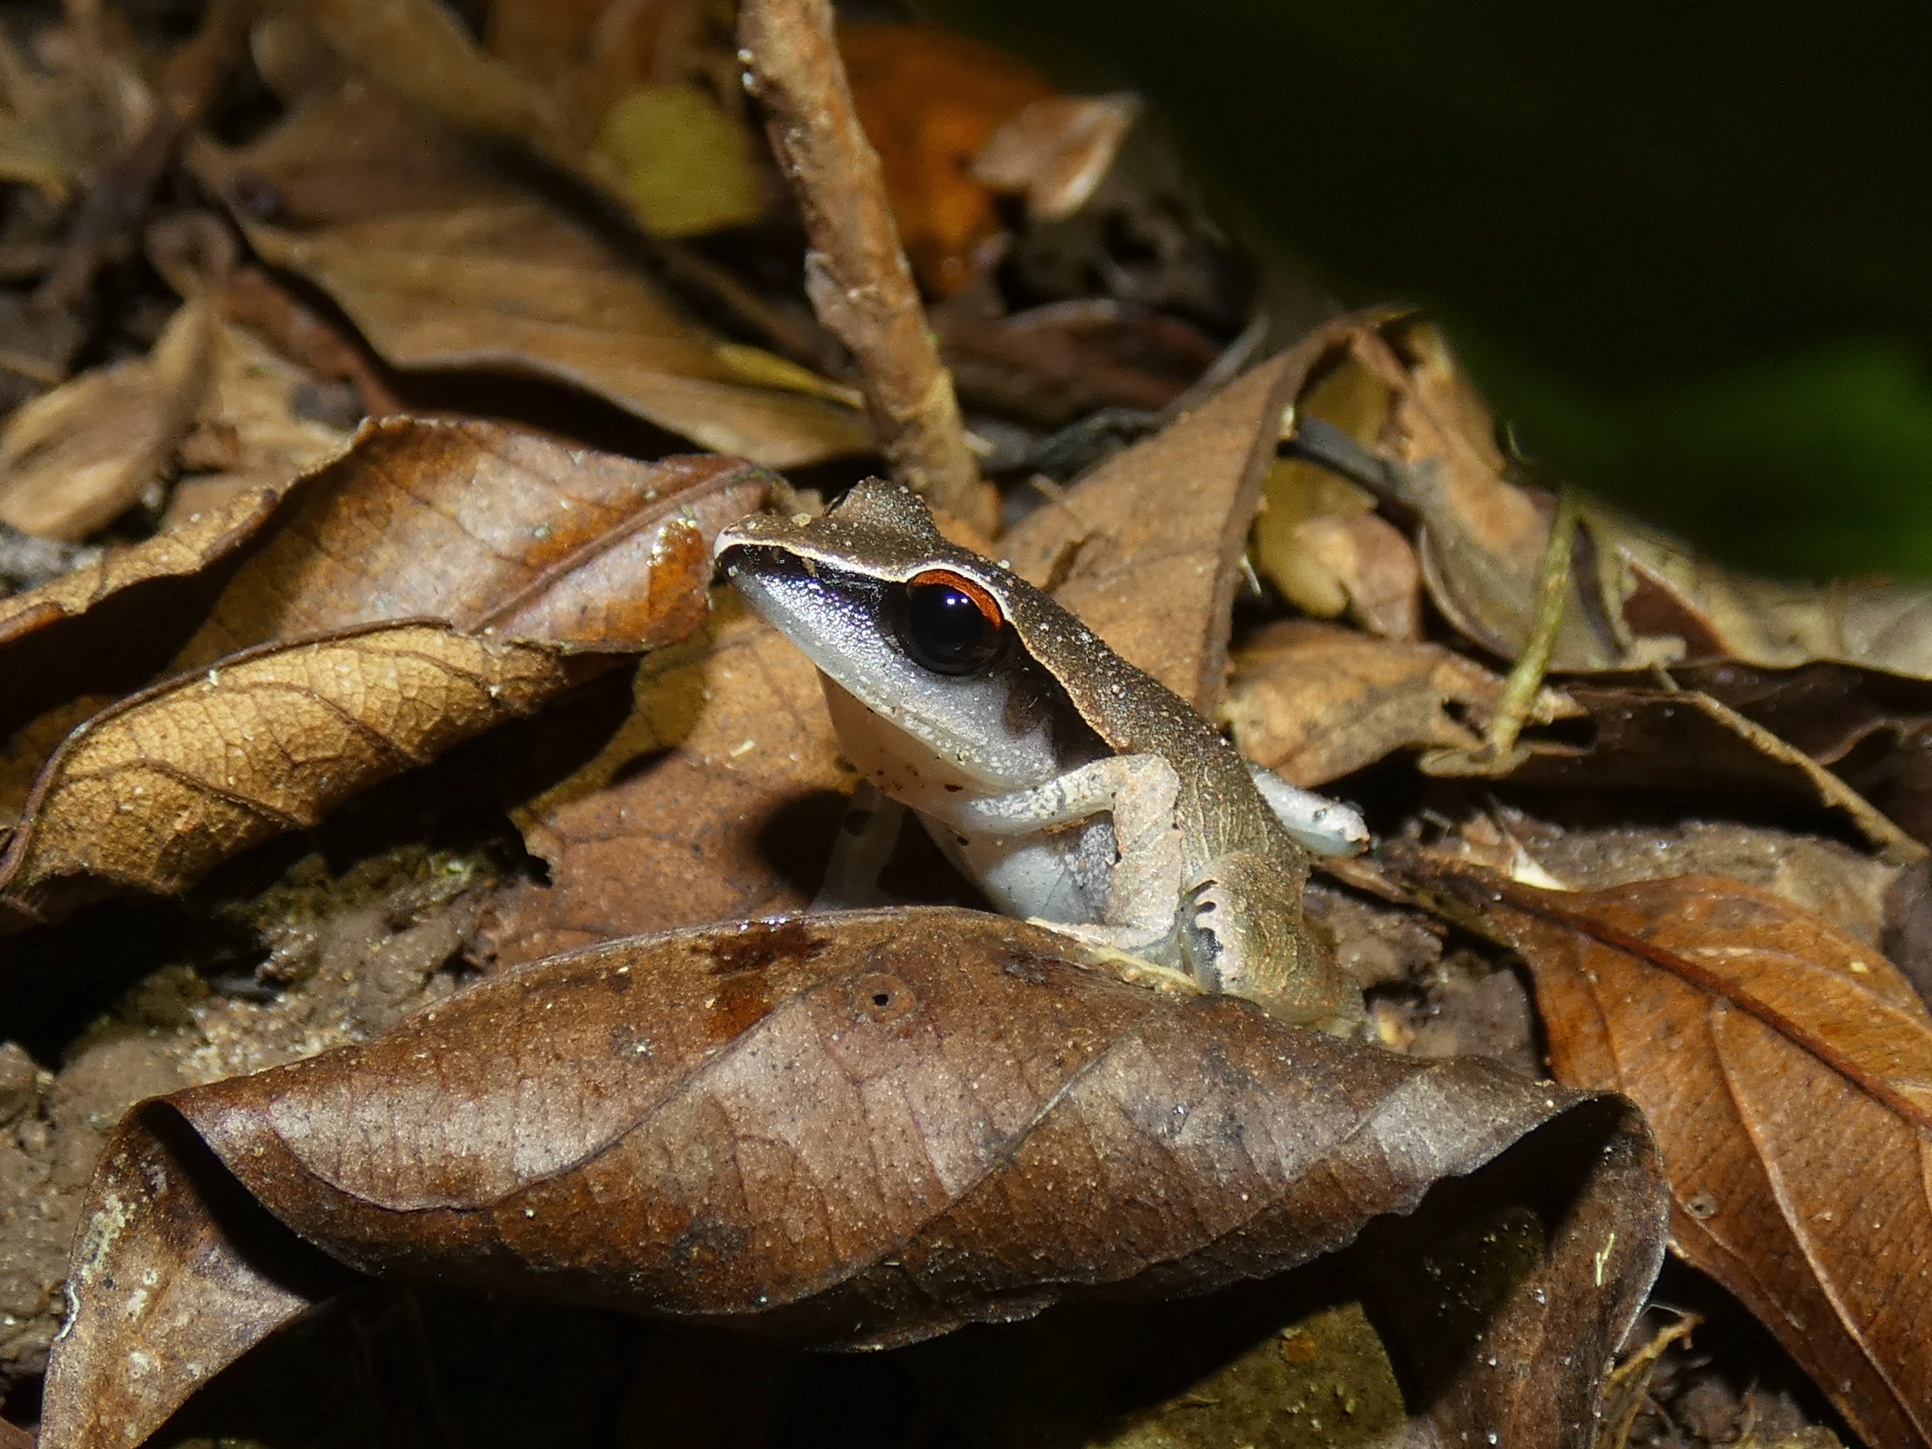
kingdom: Animalia
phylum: Chordata
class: Amphibia
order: Anura
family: Craugastoridae
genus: Craugastor
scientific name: Craugastor gollmeri
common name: Evergreen robber frog
